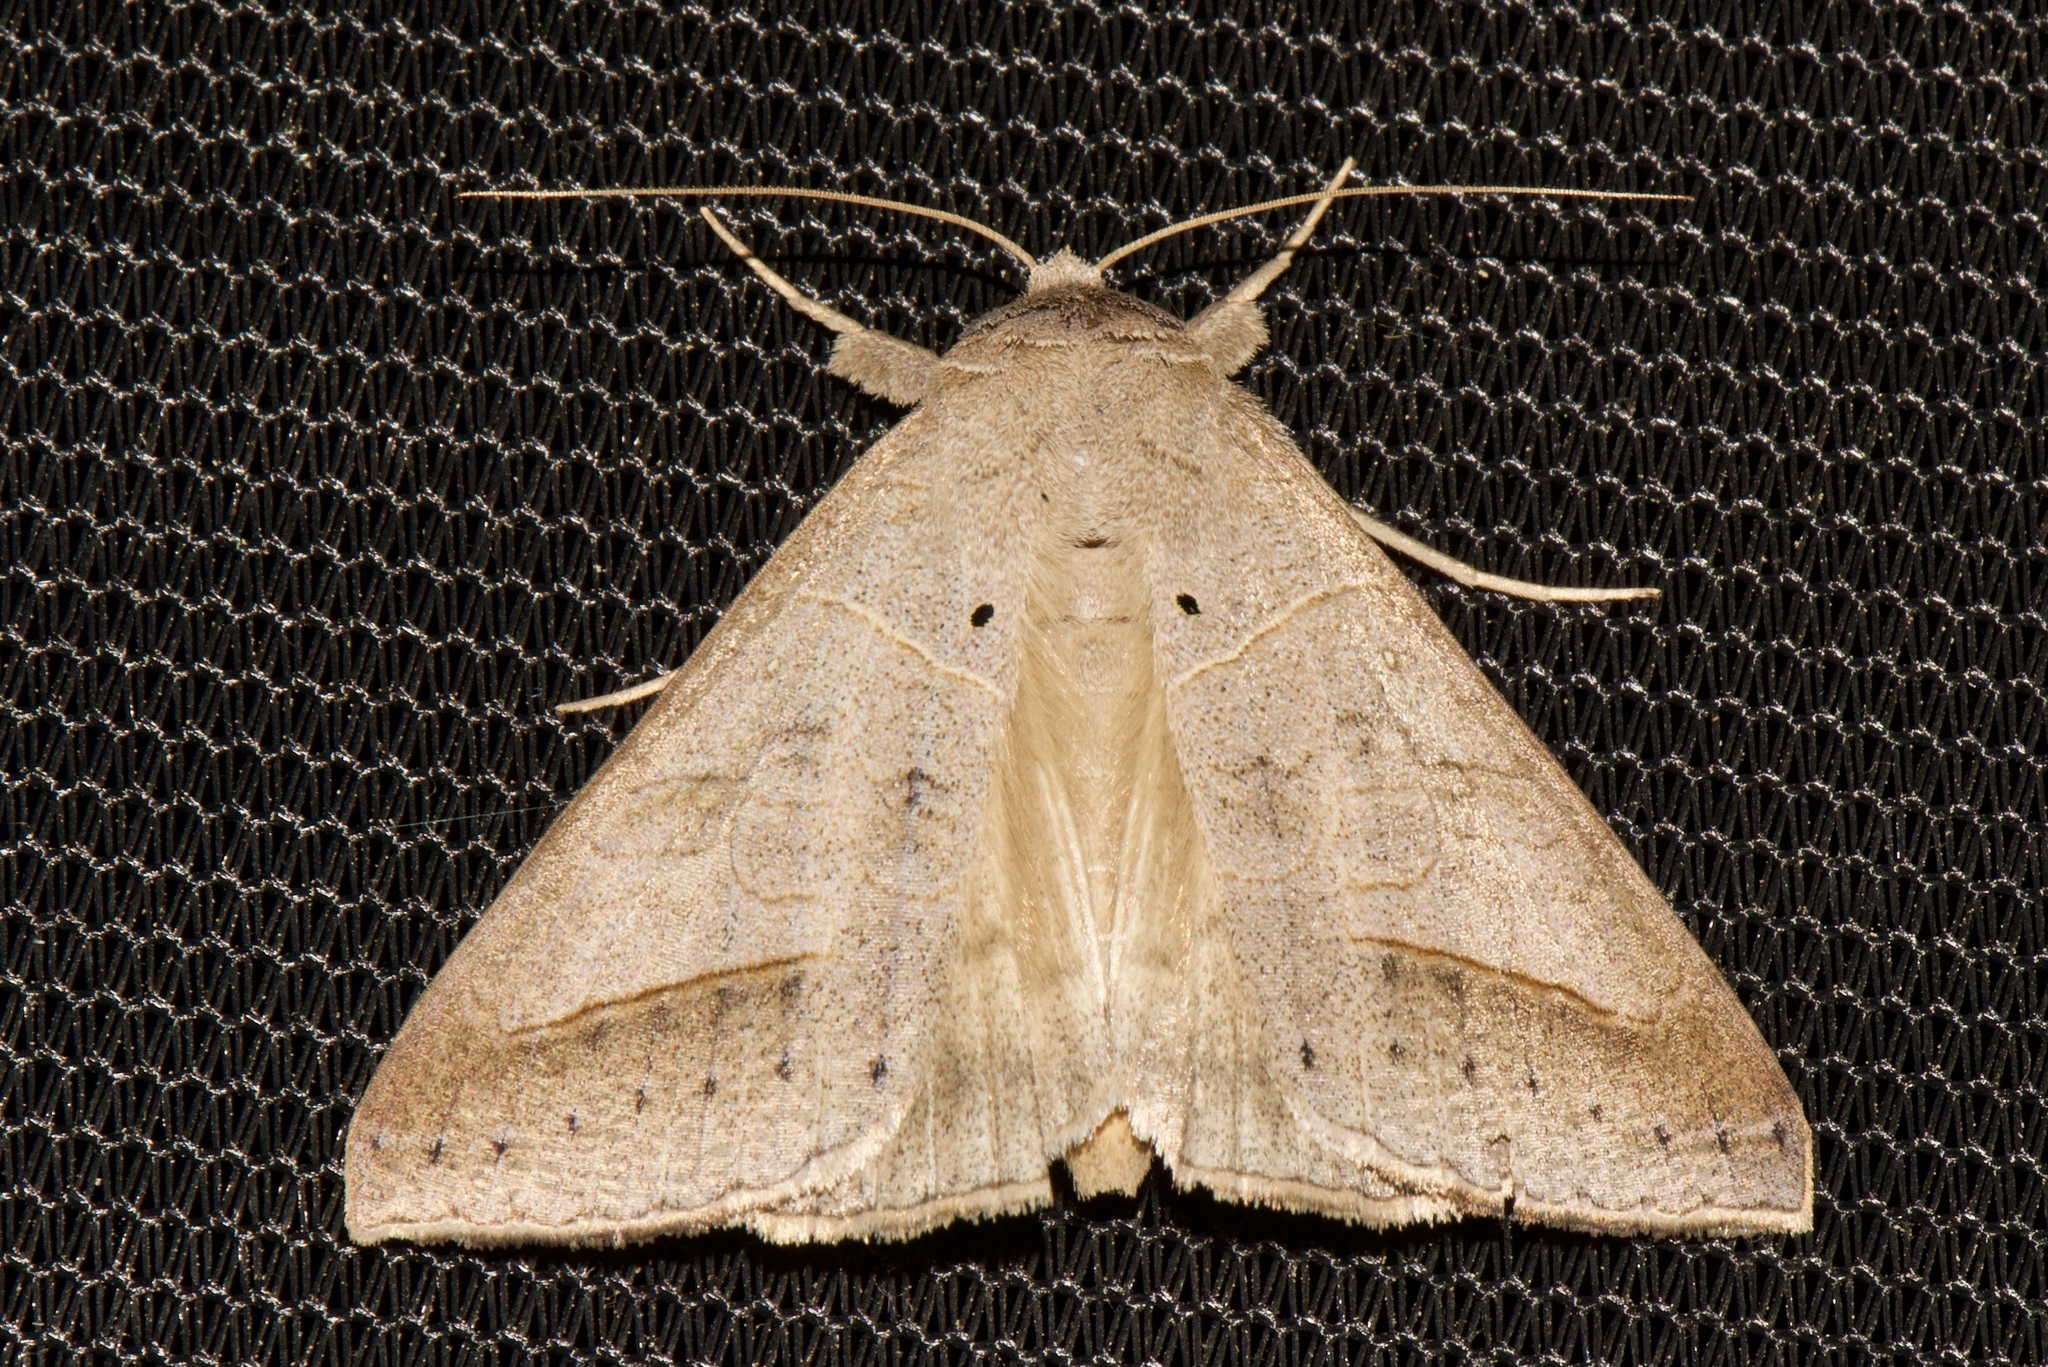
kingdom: Animalia
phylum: Arthropoda
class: Insecta
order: Lepidoptera
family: Erebidae
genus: Mocis
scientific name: Mocis marcida
